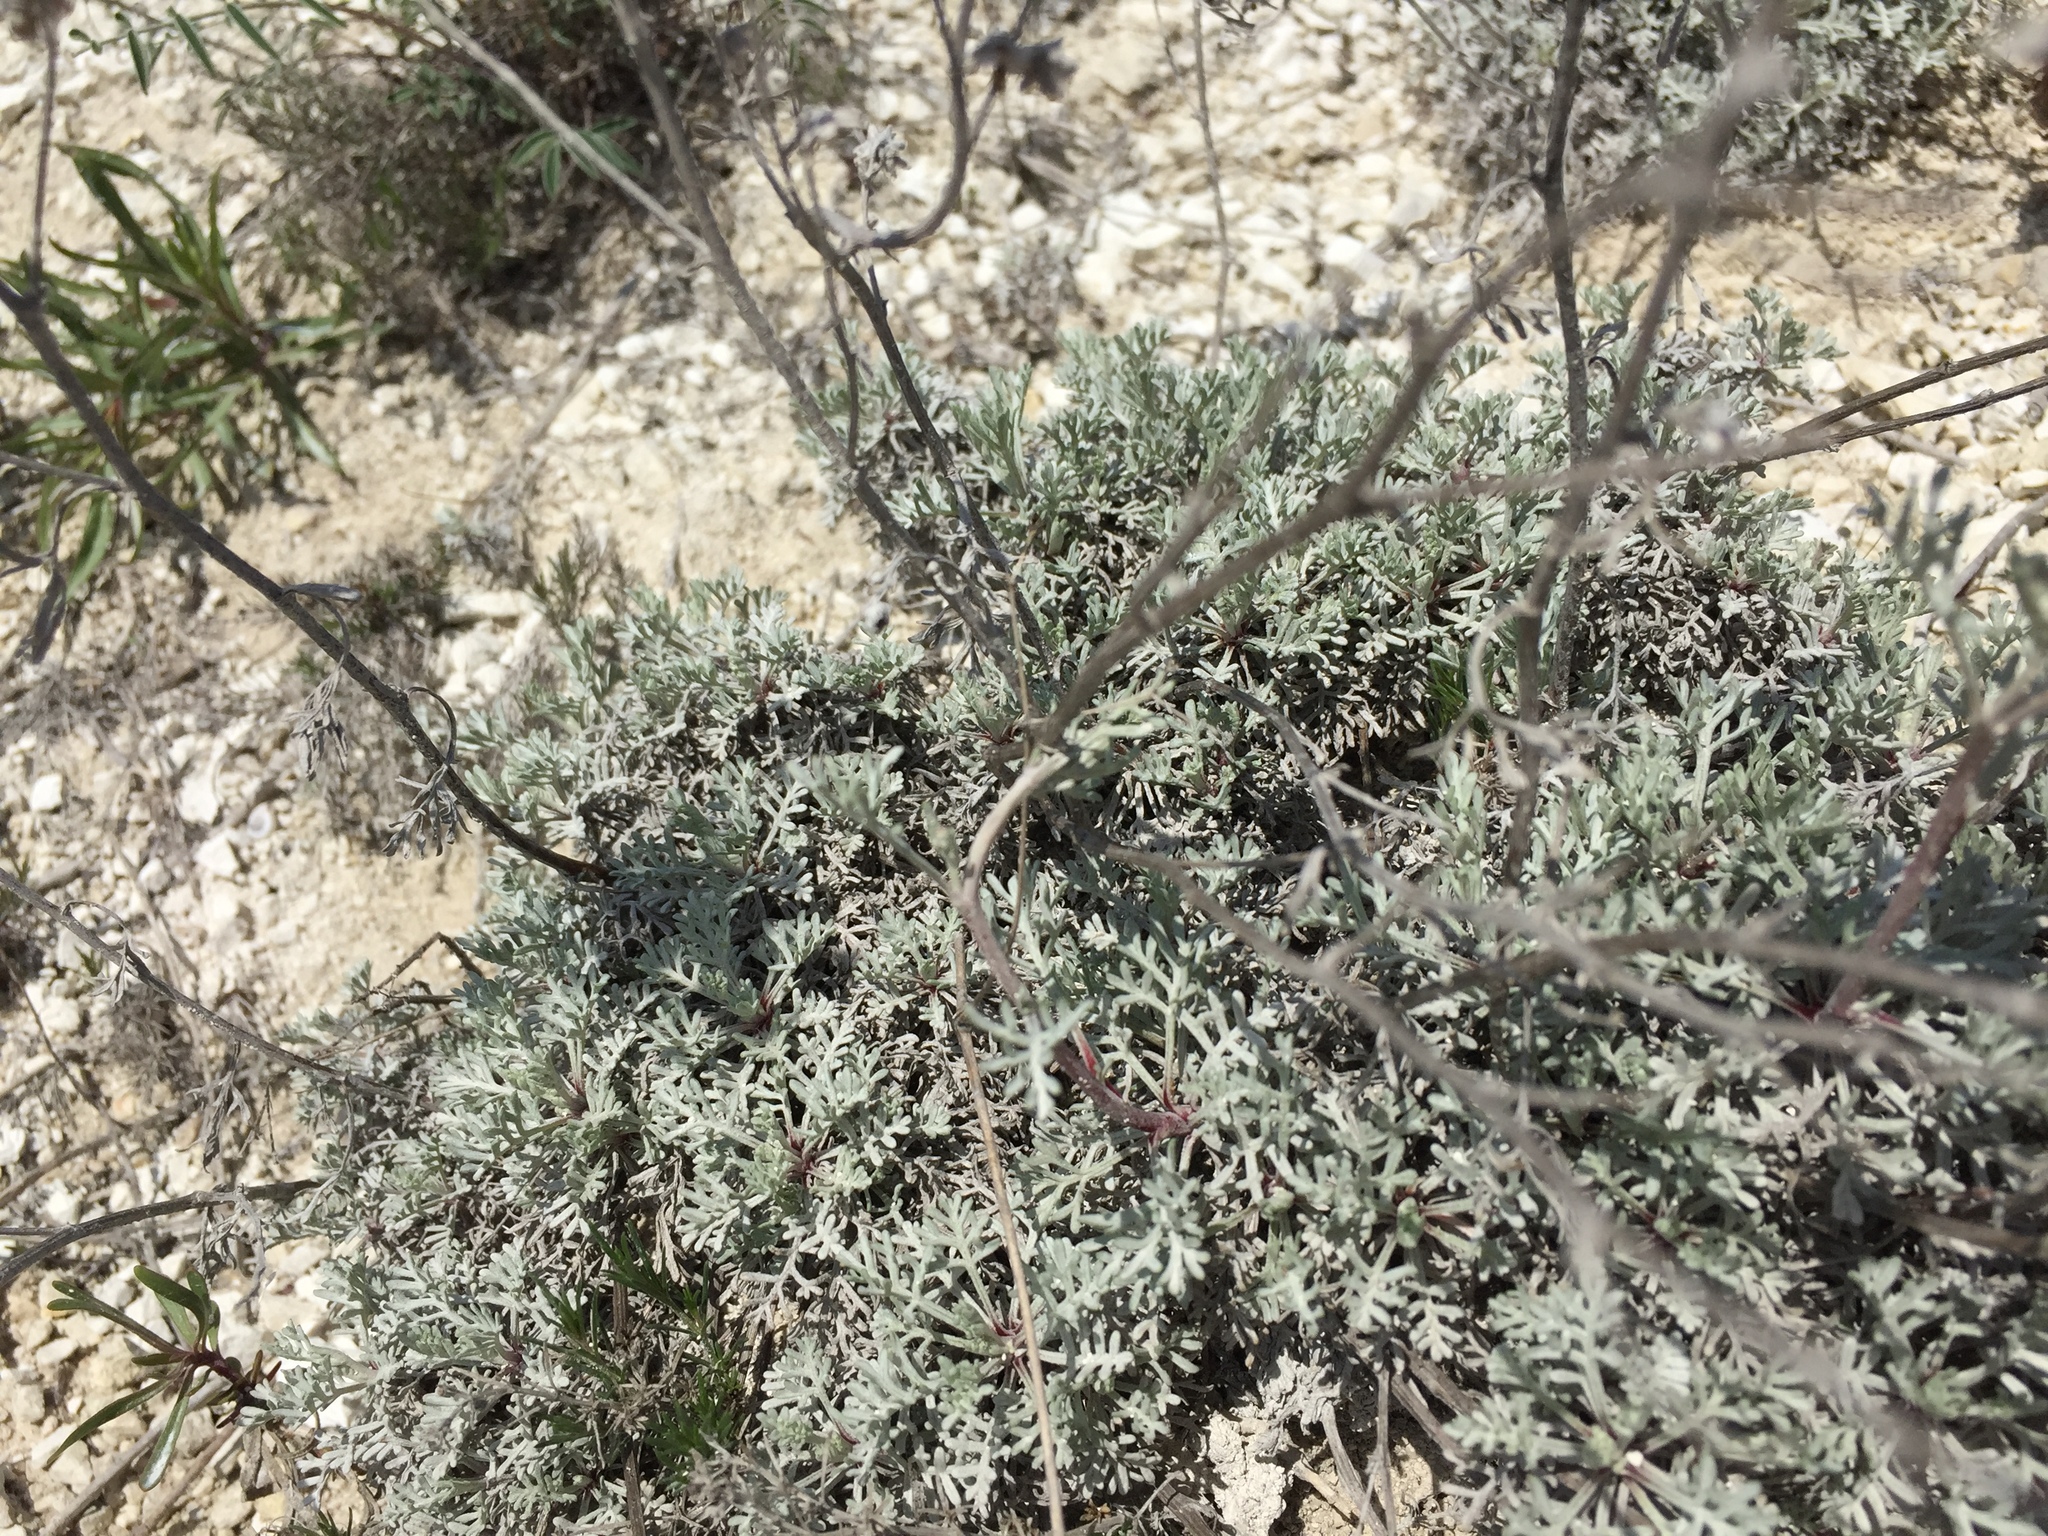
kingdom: Plantae
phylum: Tracheophyta
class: Magnoliopsida
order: Asterales
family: Asteraceae
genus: Artemisia
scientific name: Artemisia hololeuca
